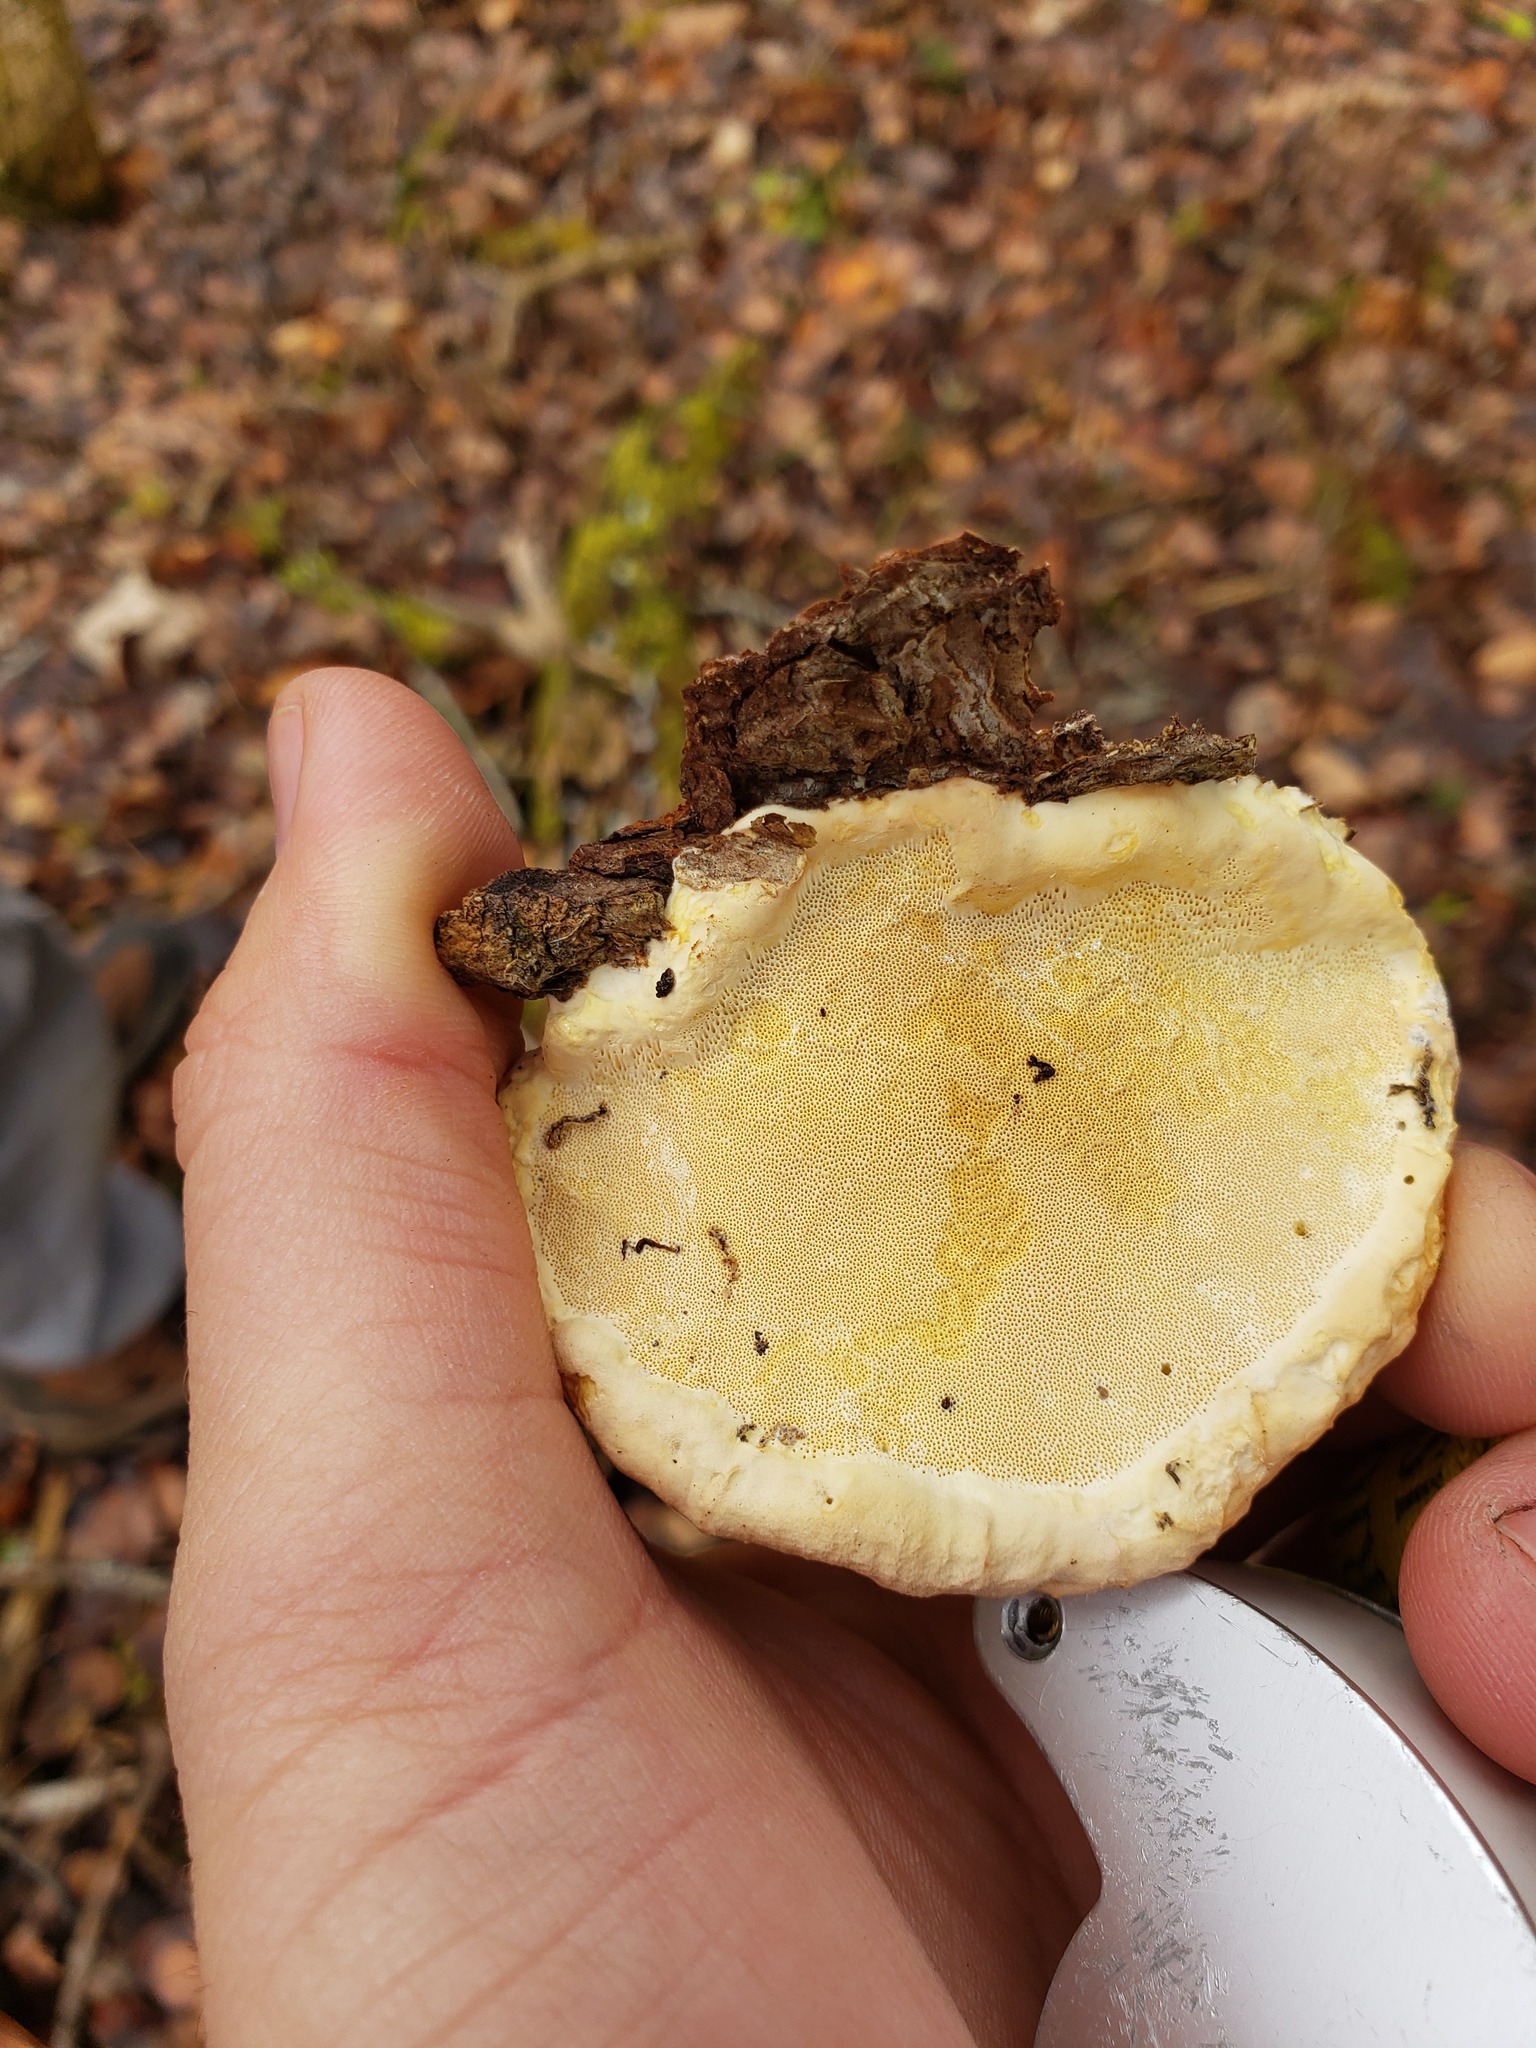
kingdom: Fungi
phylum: Basidiomycota
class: Agaricomycetes
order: Polyporales
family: Fomitopsidaceae
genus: Fomitopsis
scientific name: Fomitopsis mounceae
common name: Northern red belt
